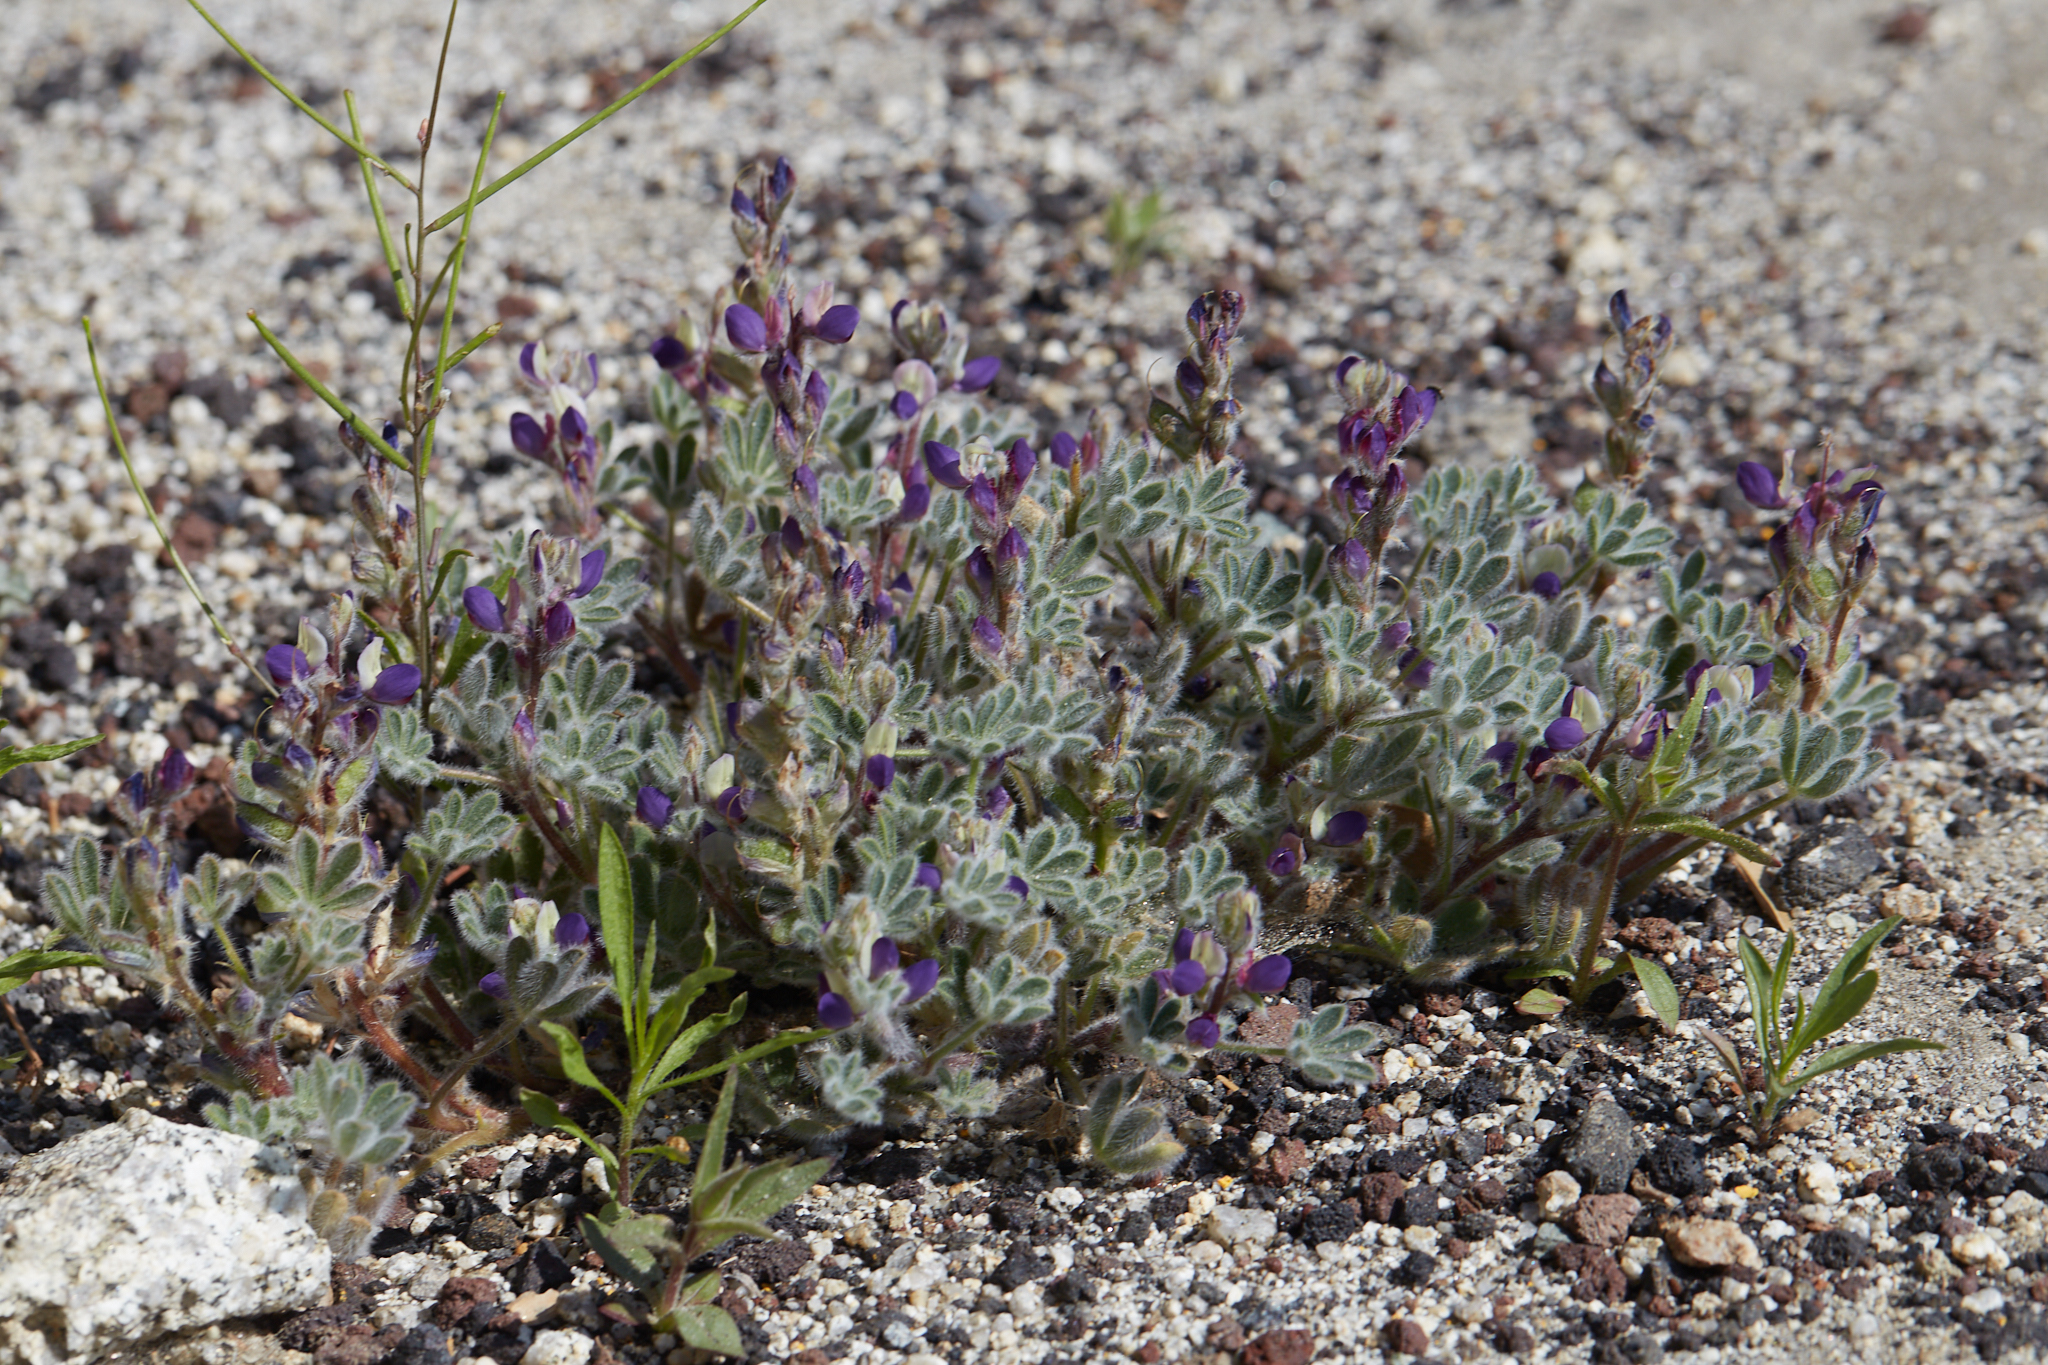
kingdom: Plantae
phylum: Tracheophyta
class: Magnoliopsida
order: Fabales
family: Fabaceae
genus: Lupinus
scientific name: Lupinus concinnus
